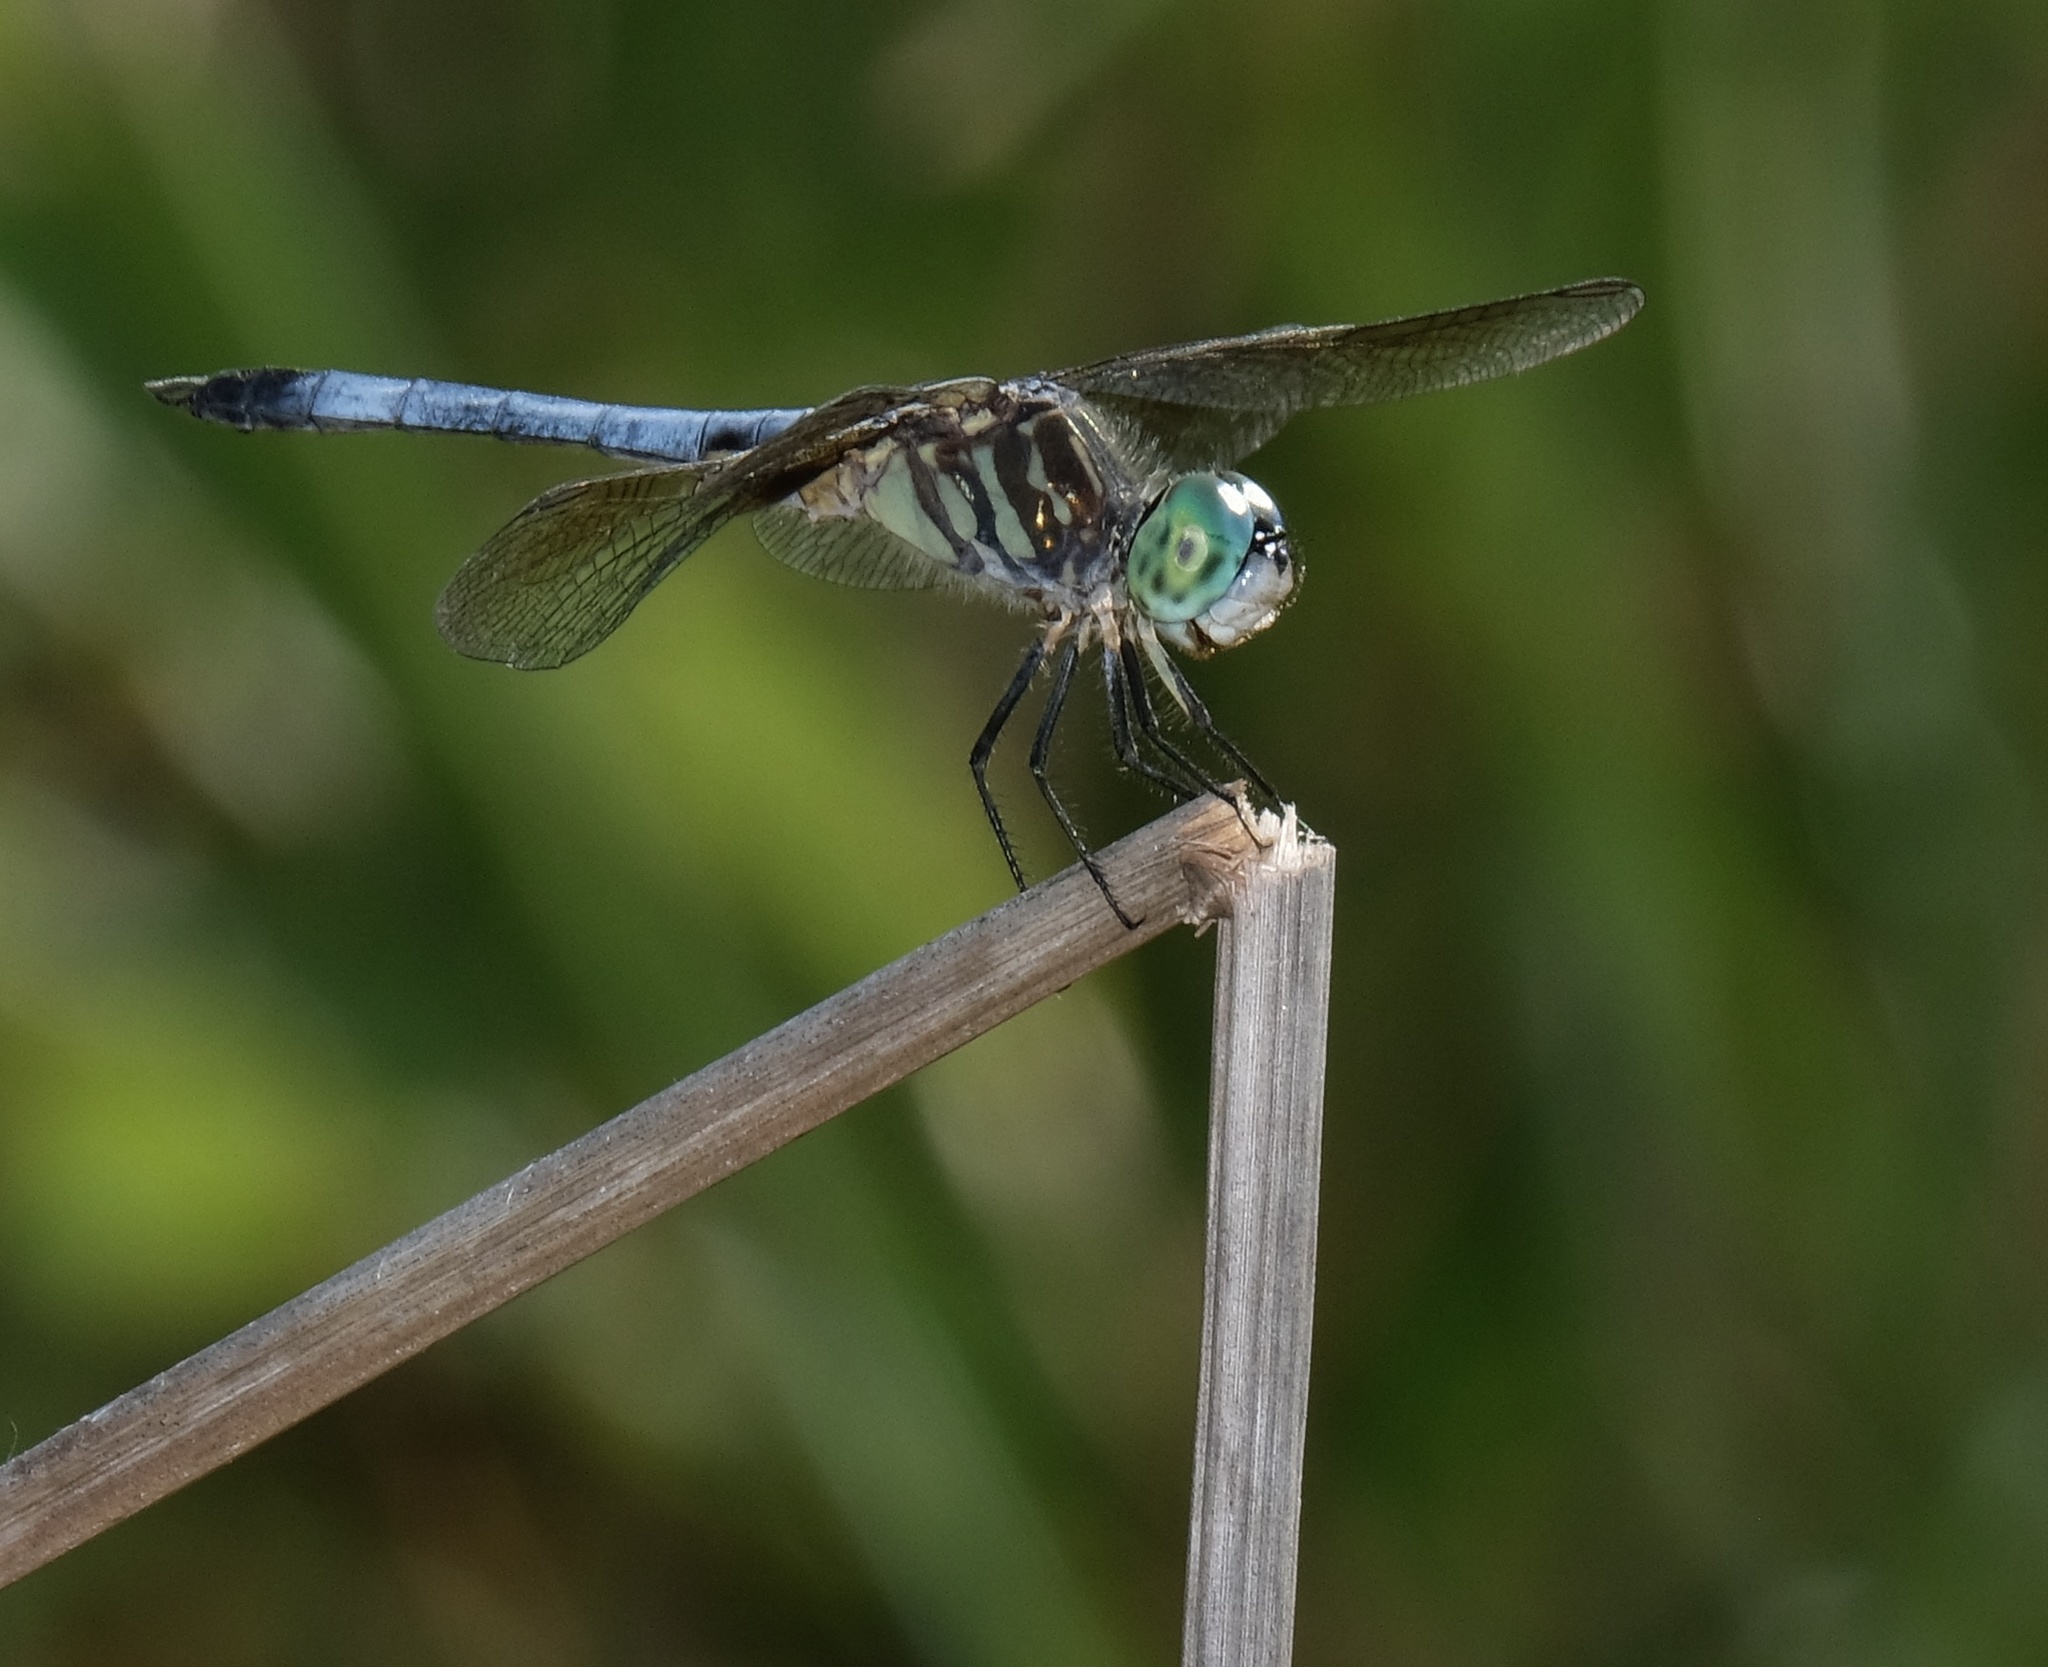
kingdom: Animalia
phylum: Arthropoda
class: Insecta
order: Odonata
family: Libellulidae
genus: Pachydiplax
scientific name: Pachydiplax longipennis
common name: Blue dasher
